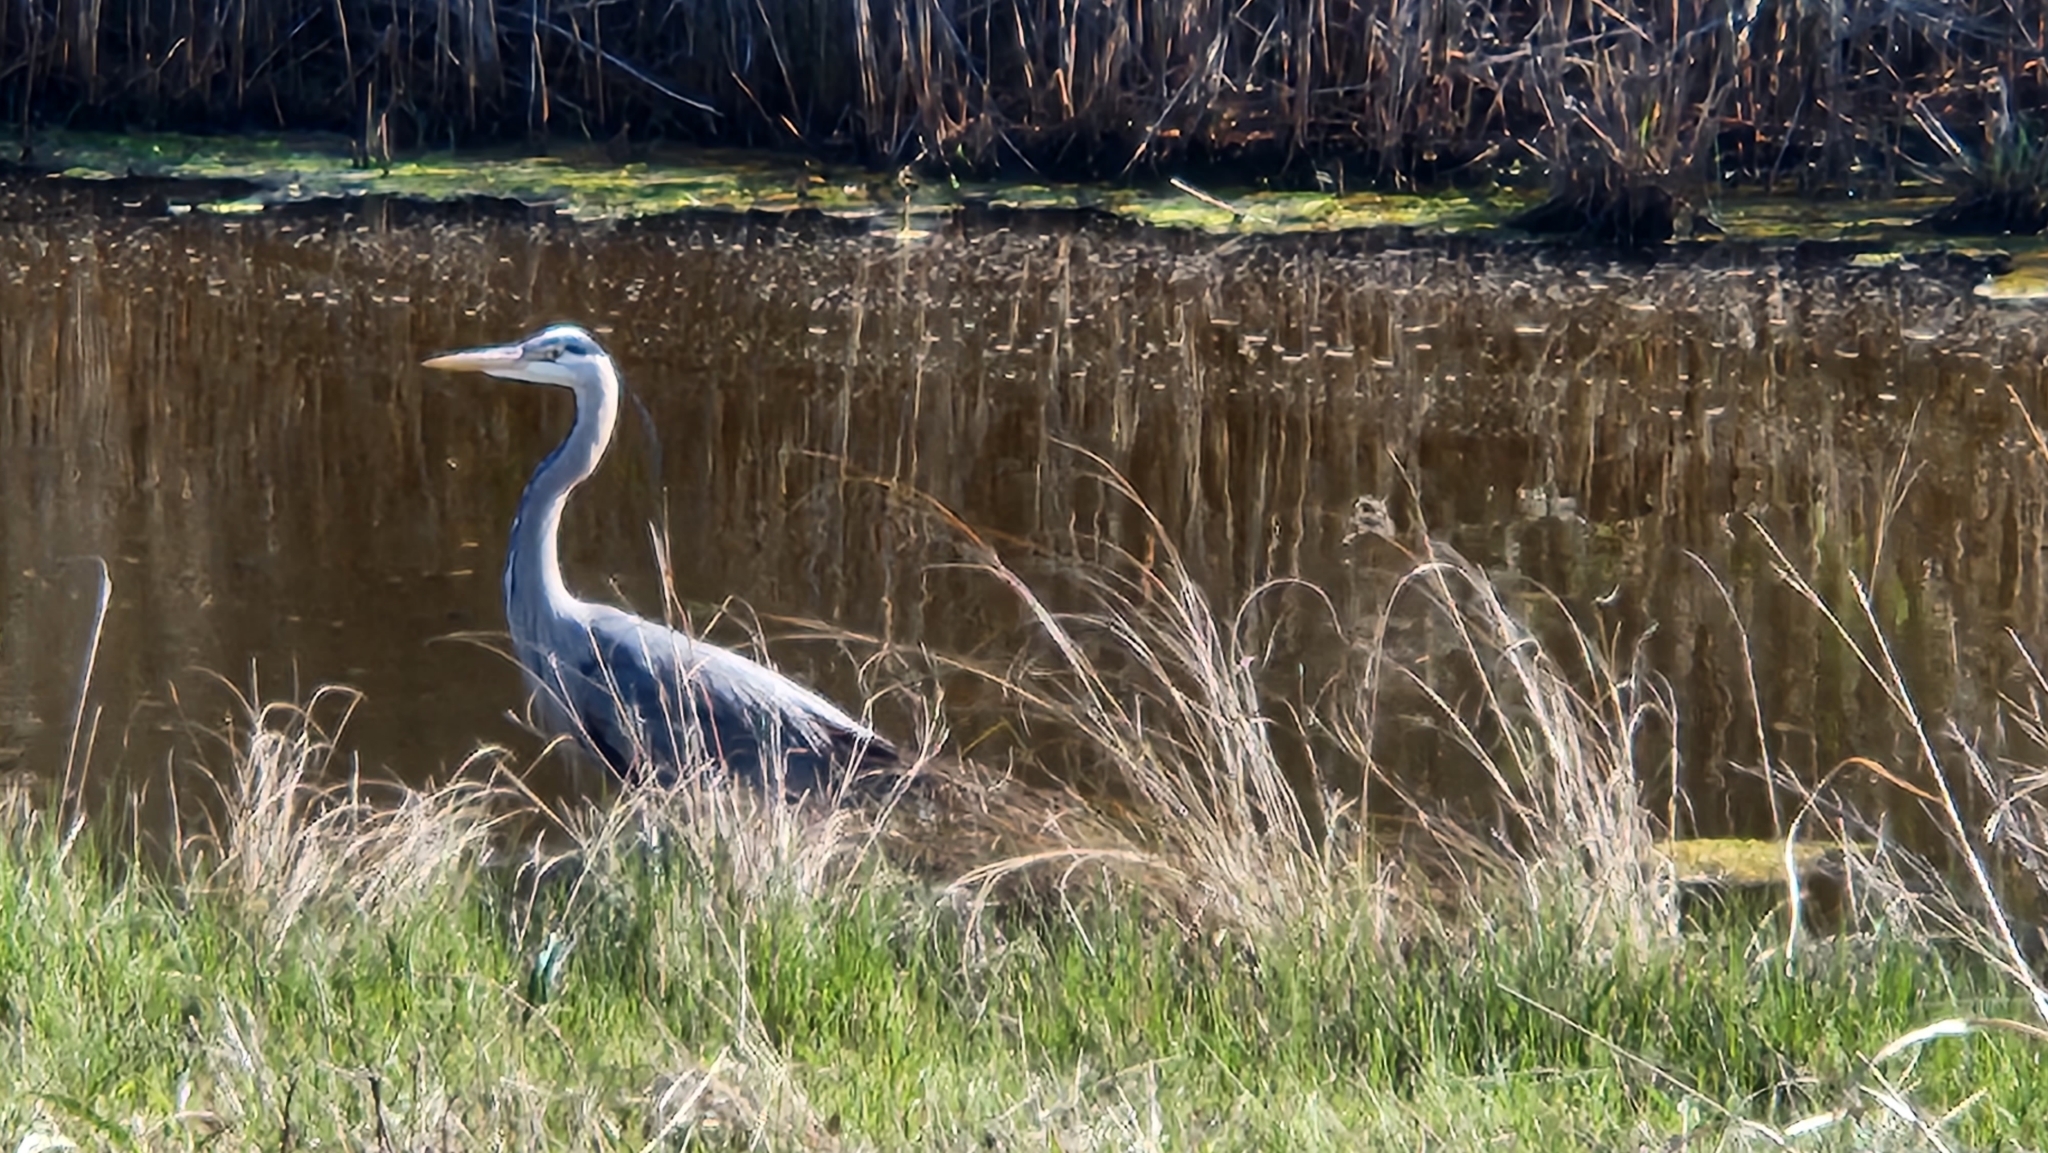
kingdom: Animalia
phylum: Chordata
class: Aves
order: Pelecaniformes
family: Ardeidae
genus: Ardea
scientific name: Ardea herodias
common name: Great blue heron
